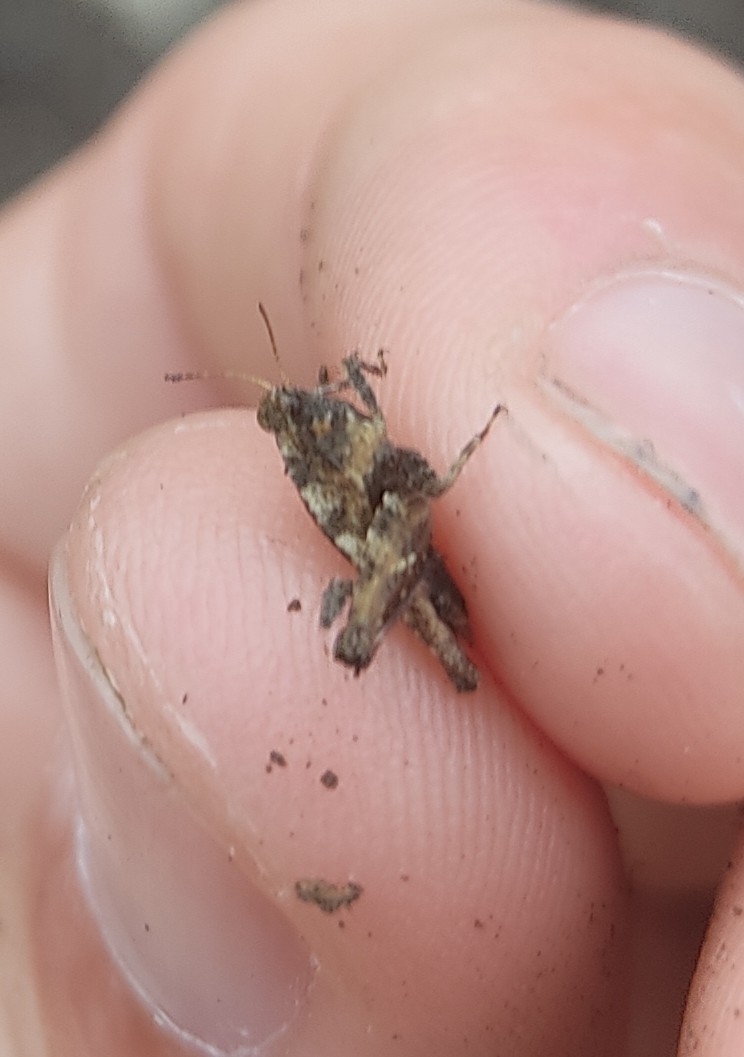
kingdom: Animalia
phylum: Arthropoda
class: Insecta
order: Orthoptera
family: Tetrigidae
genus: Tetrix
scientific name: Tetrix undulata
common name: Common groundhopper
